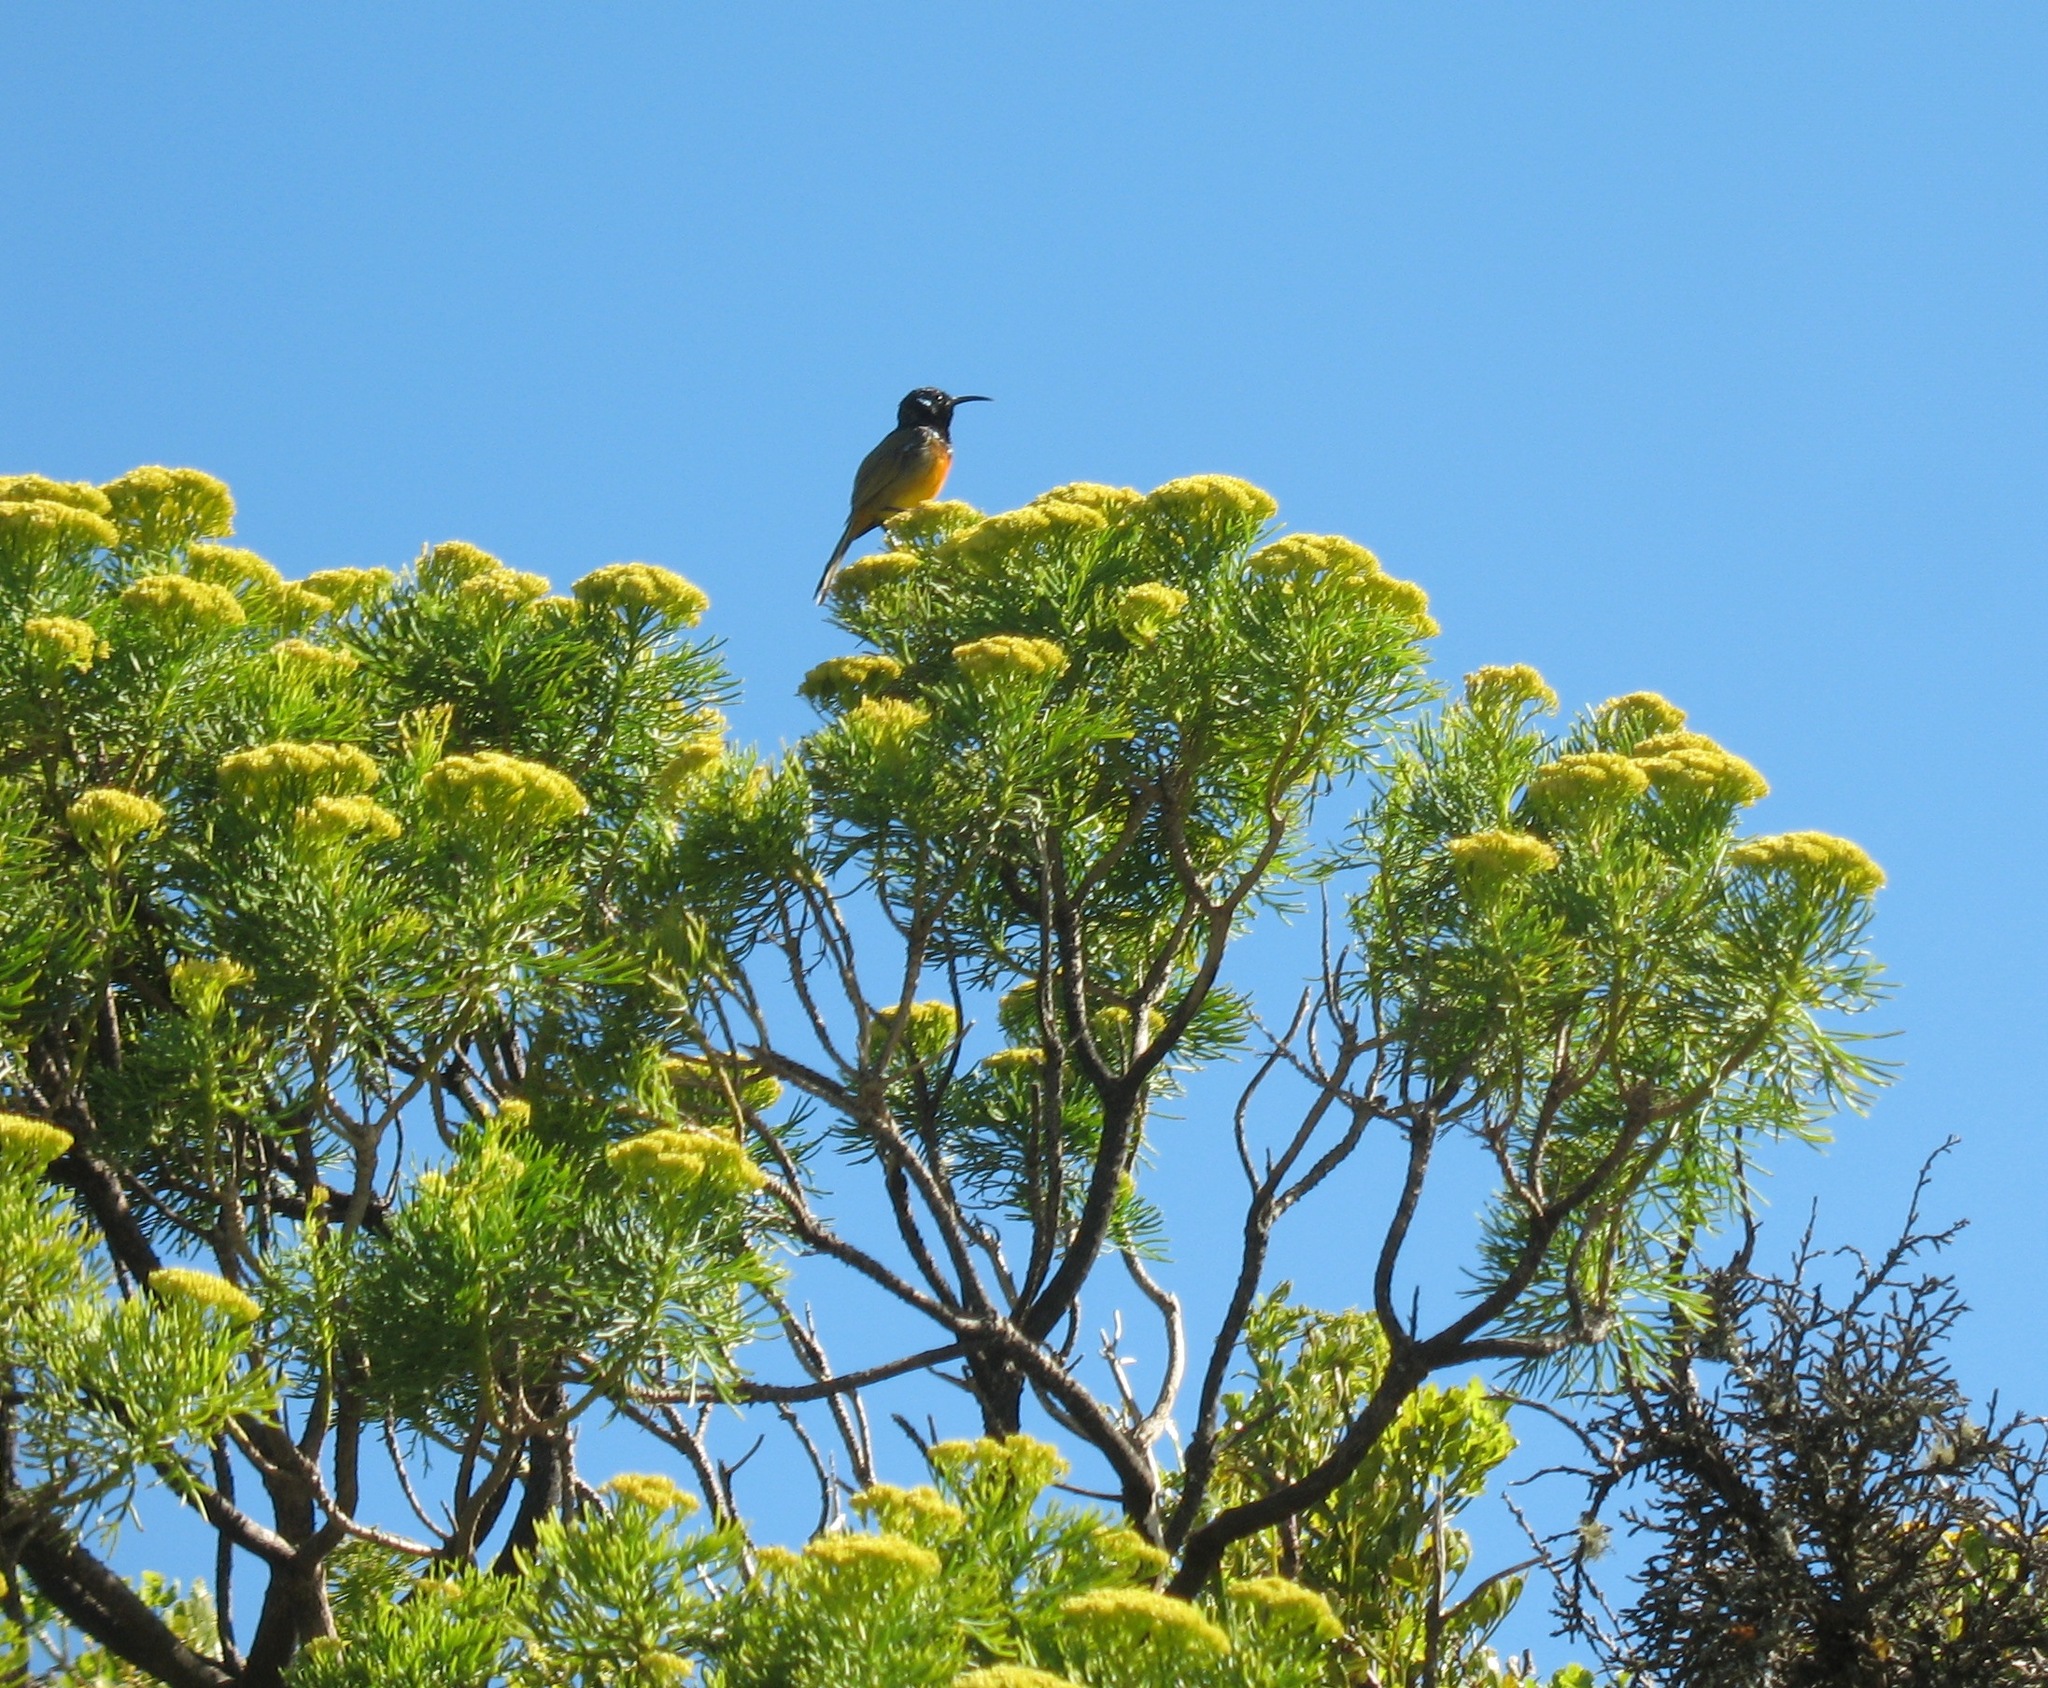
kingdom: Animalia
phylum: Chordata
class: Aves
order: Passeriformes
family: Nectariniidae
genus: Anthobaphes
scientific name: Anthobaphes violacea
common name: Orange-breasted sunbird
